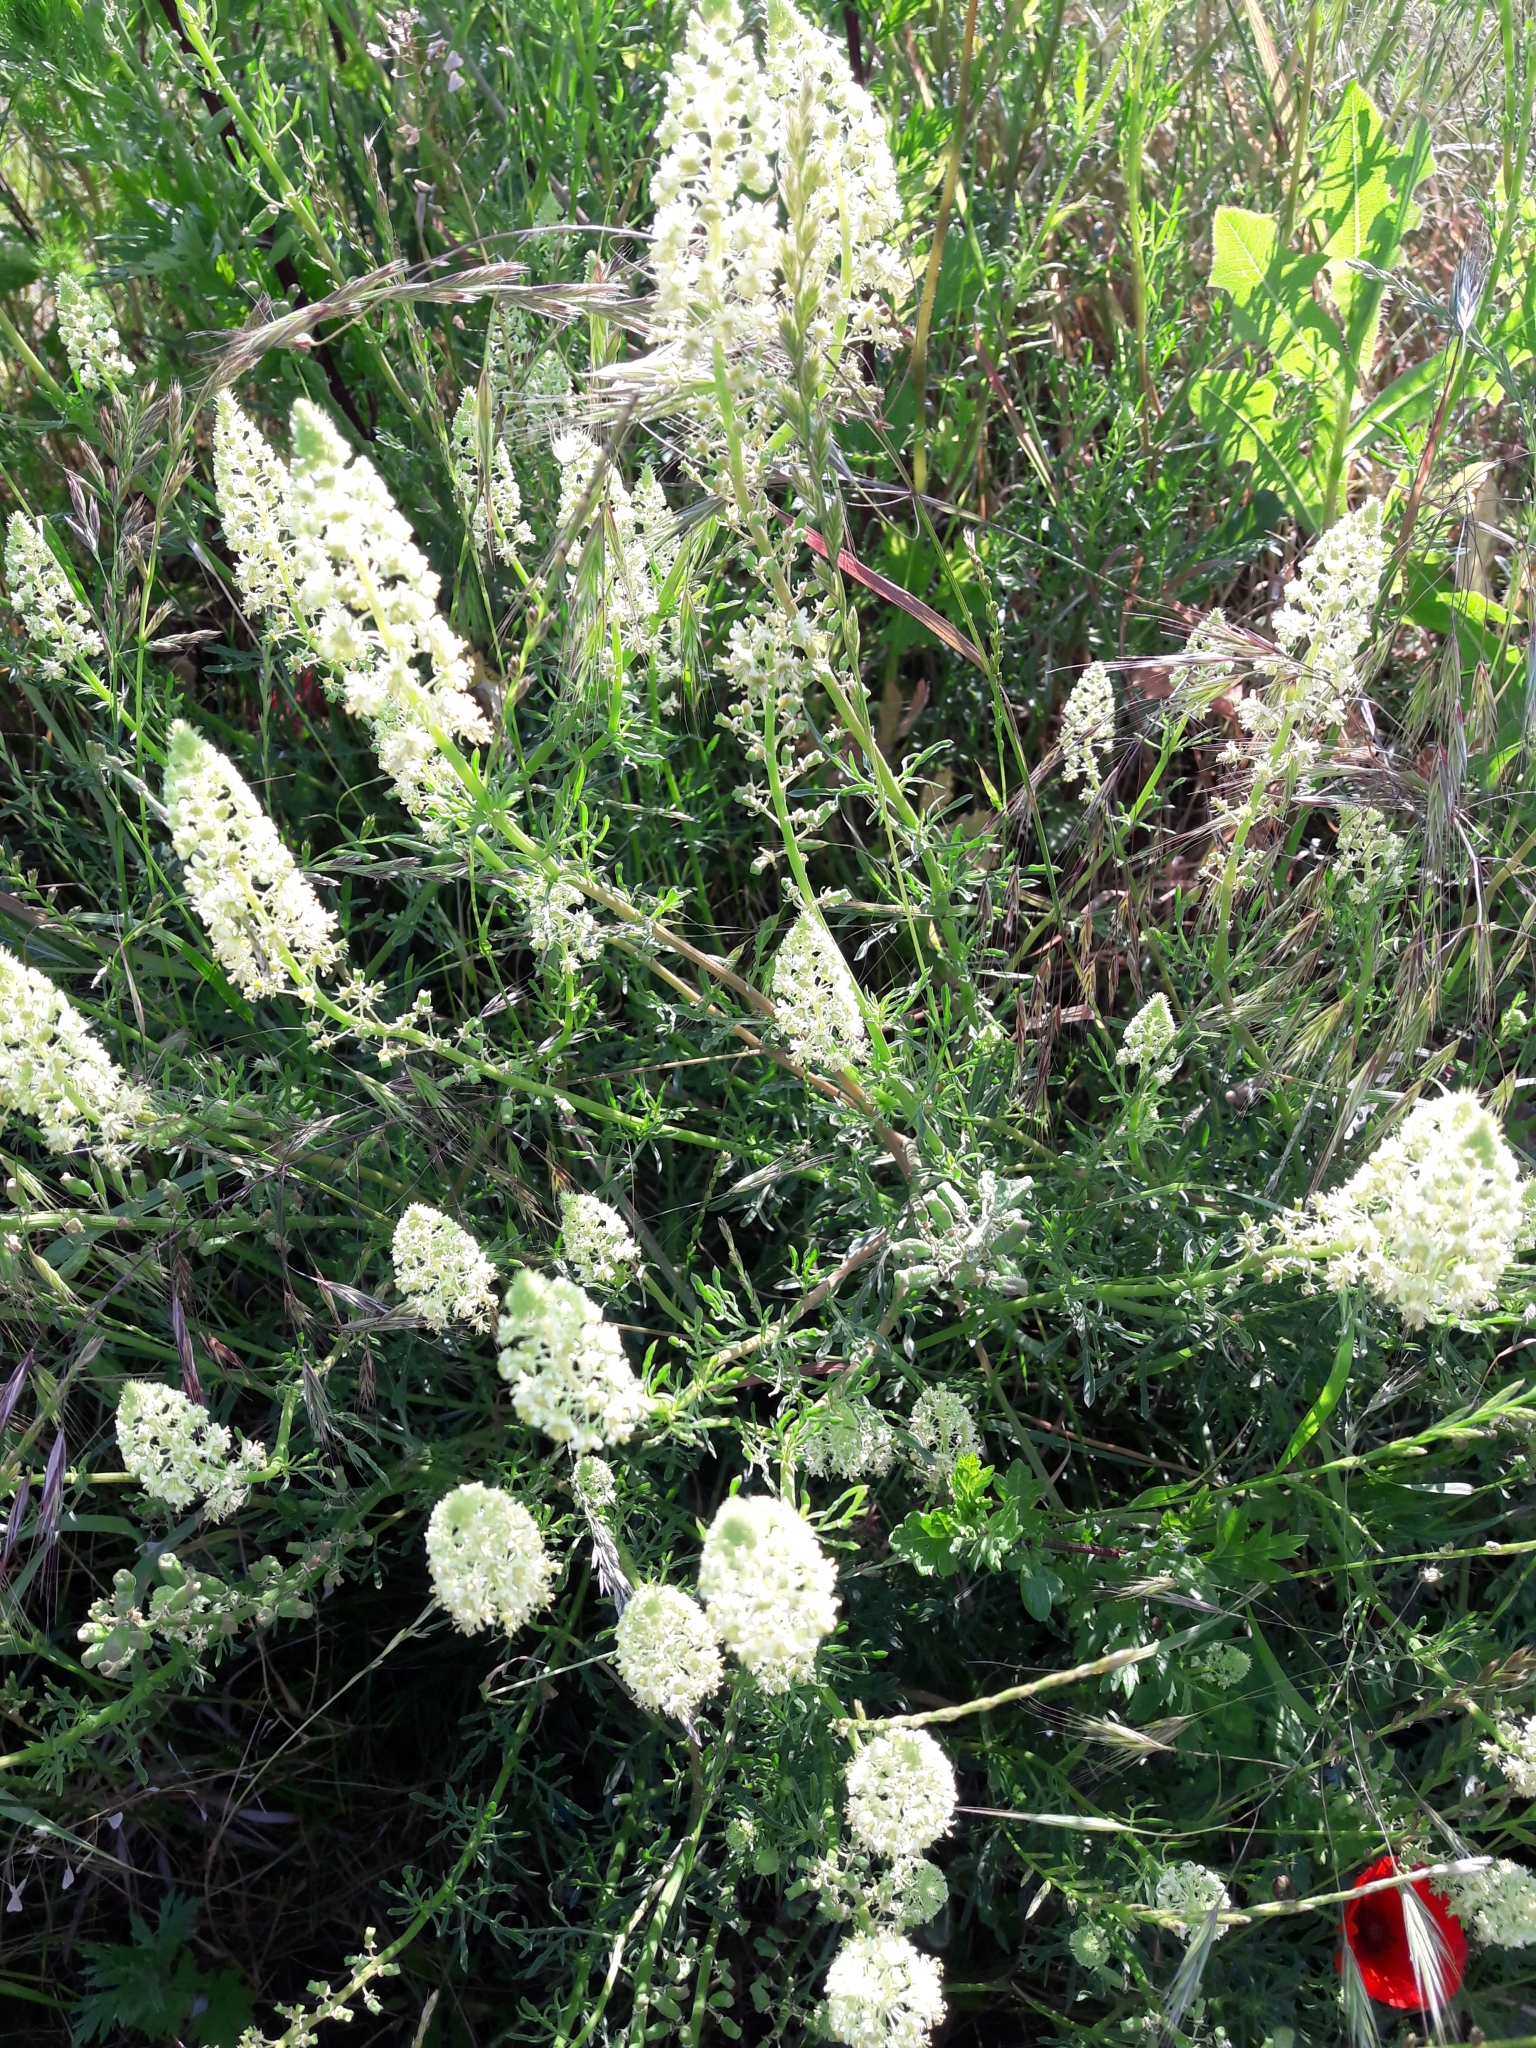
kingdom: Plantae
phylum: Tracheophyta
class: Magnoliopsida
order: Brassicales
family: Resedaceae
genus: Reseda
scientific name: Reseda lutea
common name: Wild mignonette
